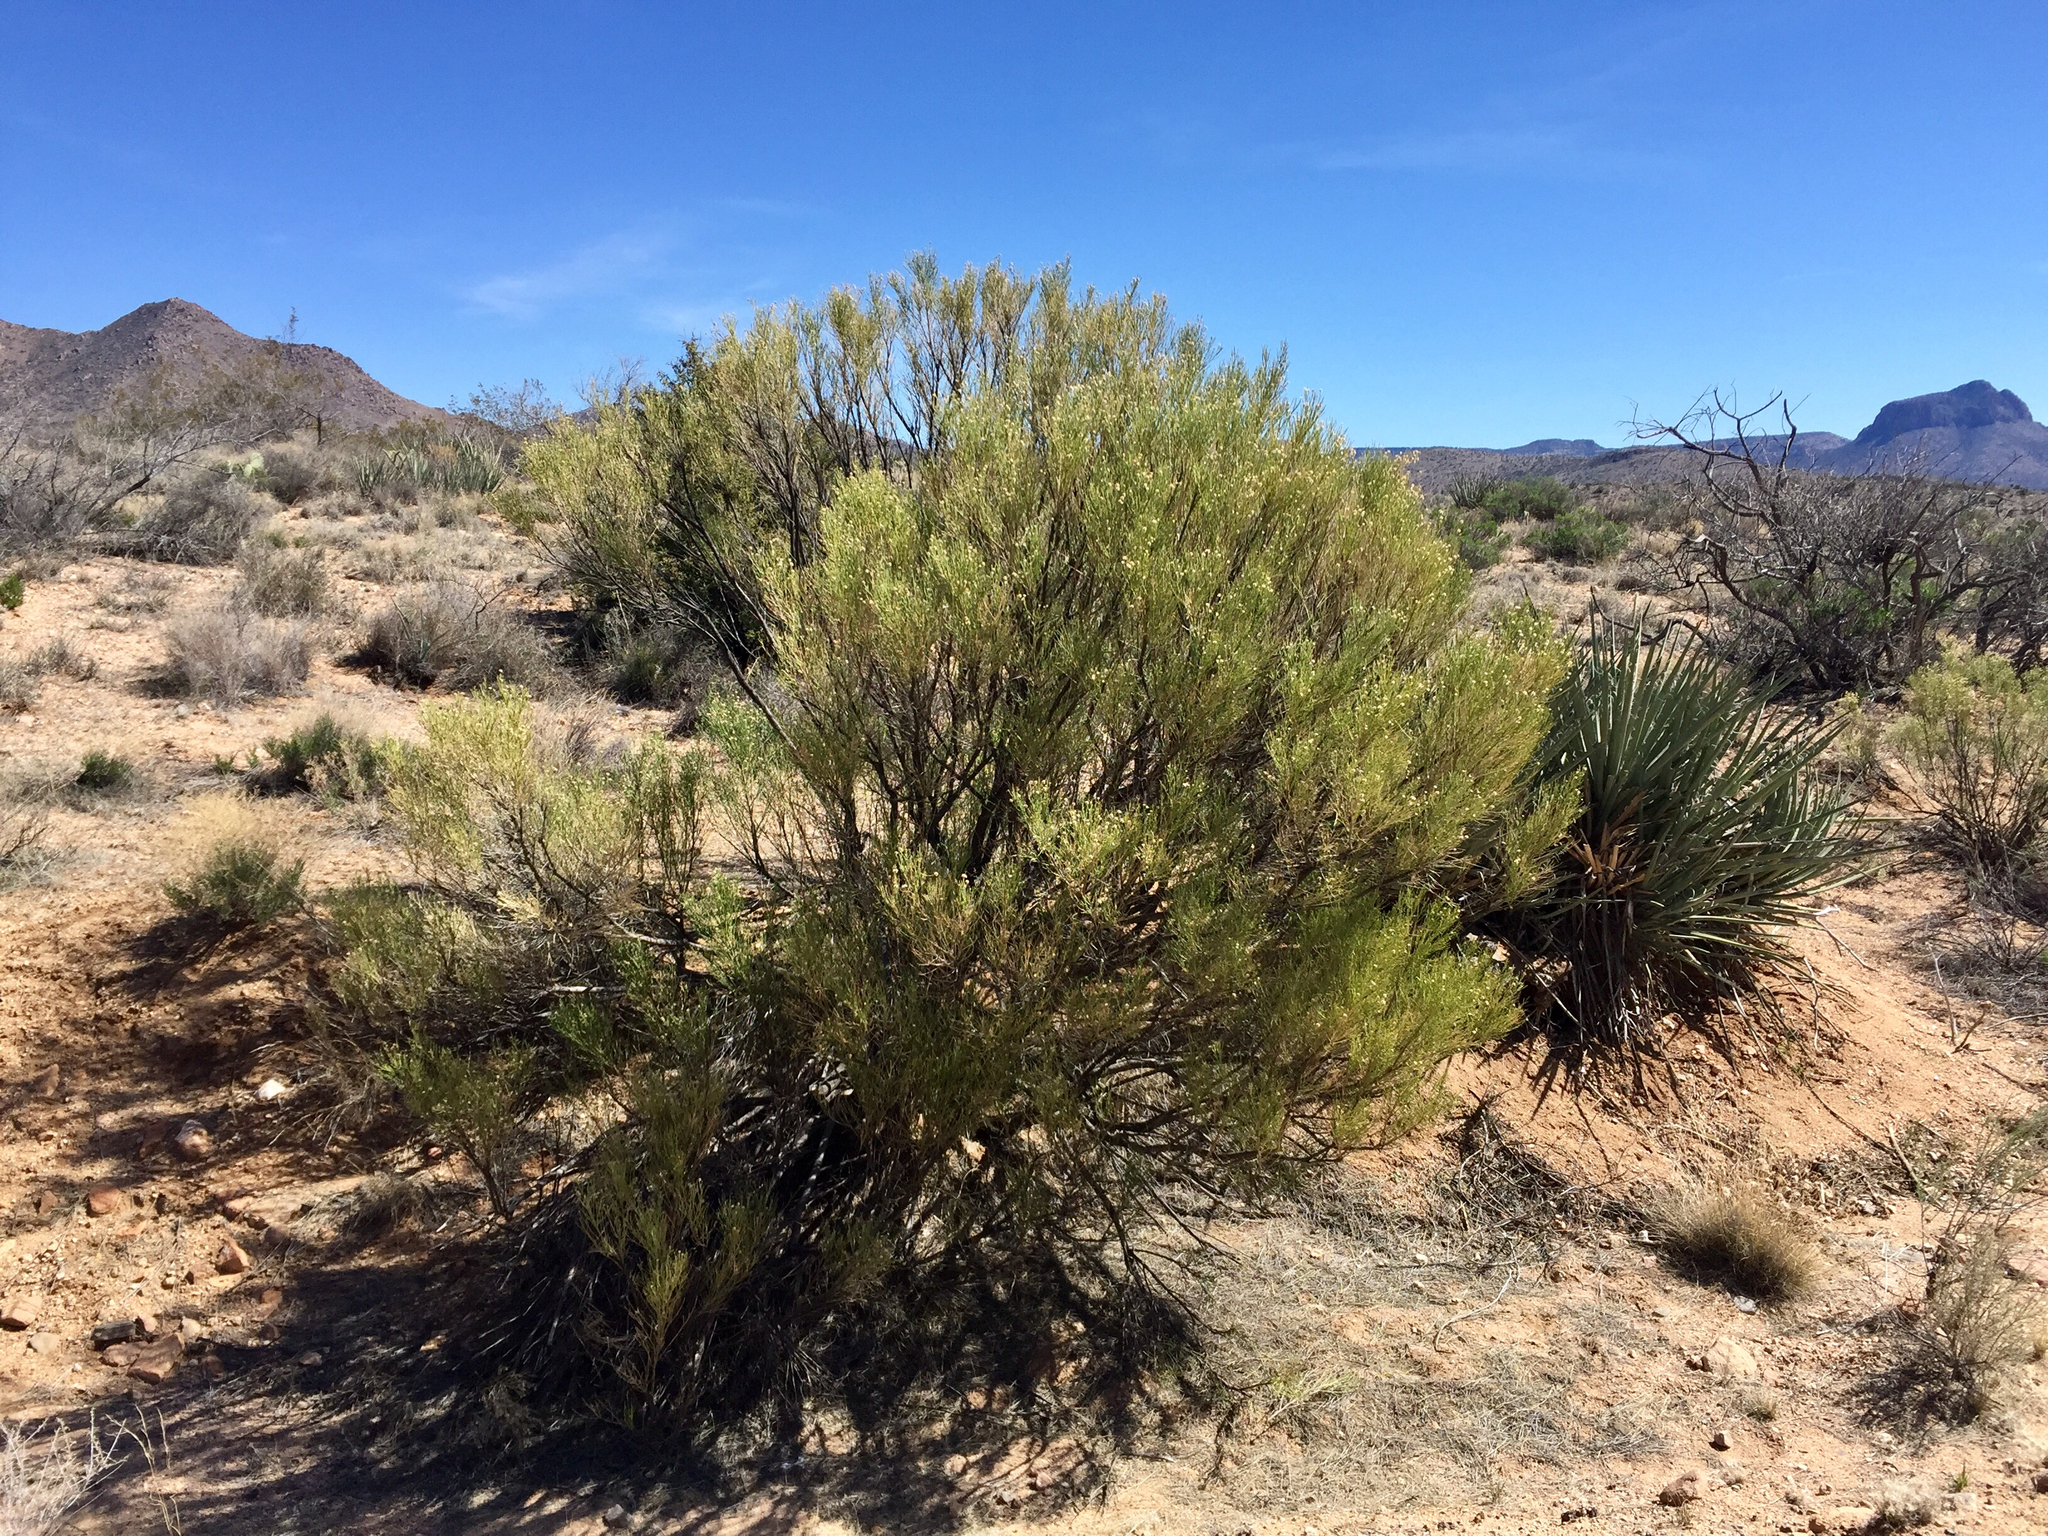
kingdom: Plantae
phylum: Tracheophyta
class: Magnoliopsida
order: Asterales
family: Asteraceae
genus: Baccharis
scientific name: Baccharis sarothroides
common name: Desert-broom
